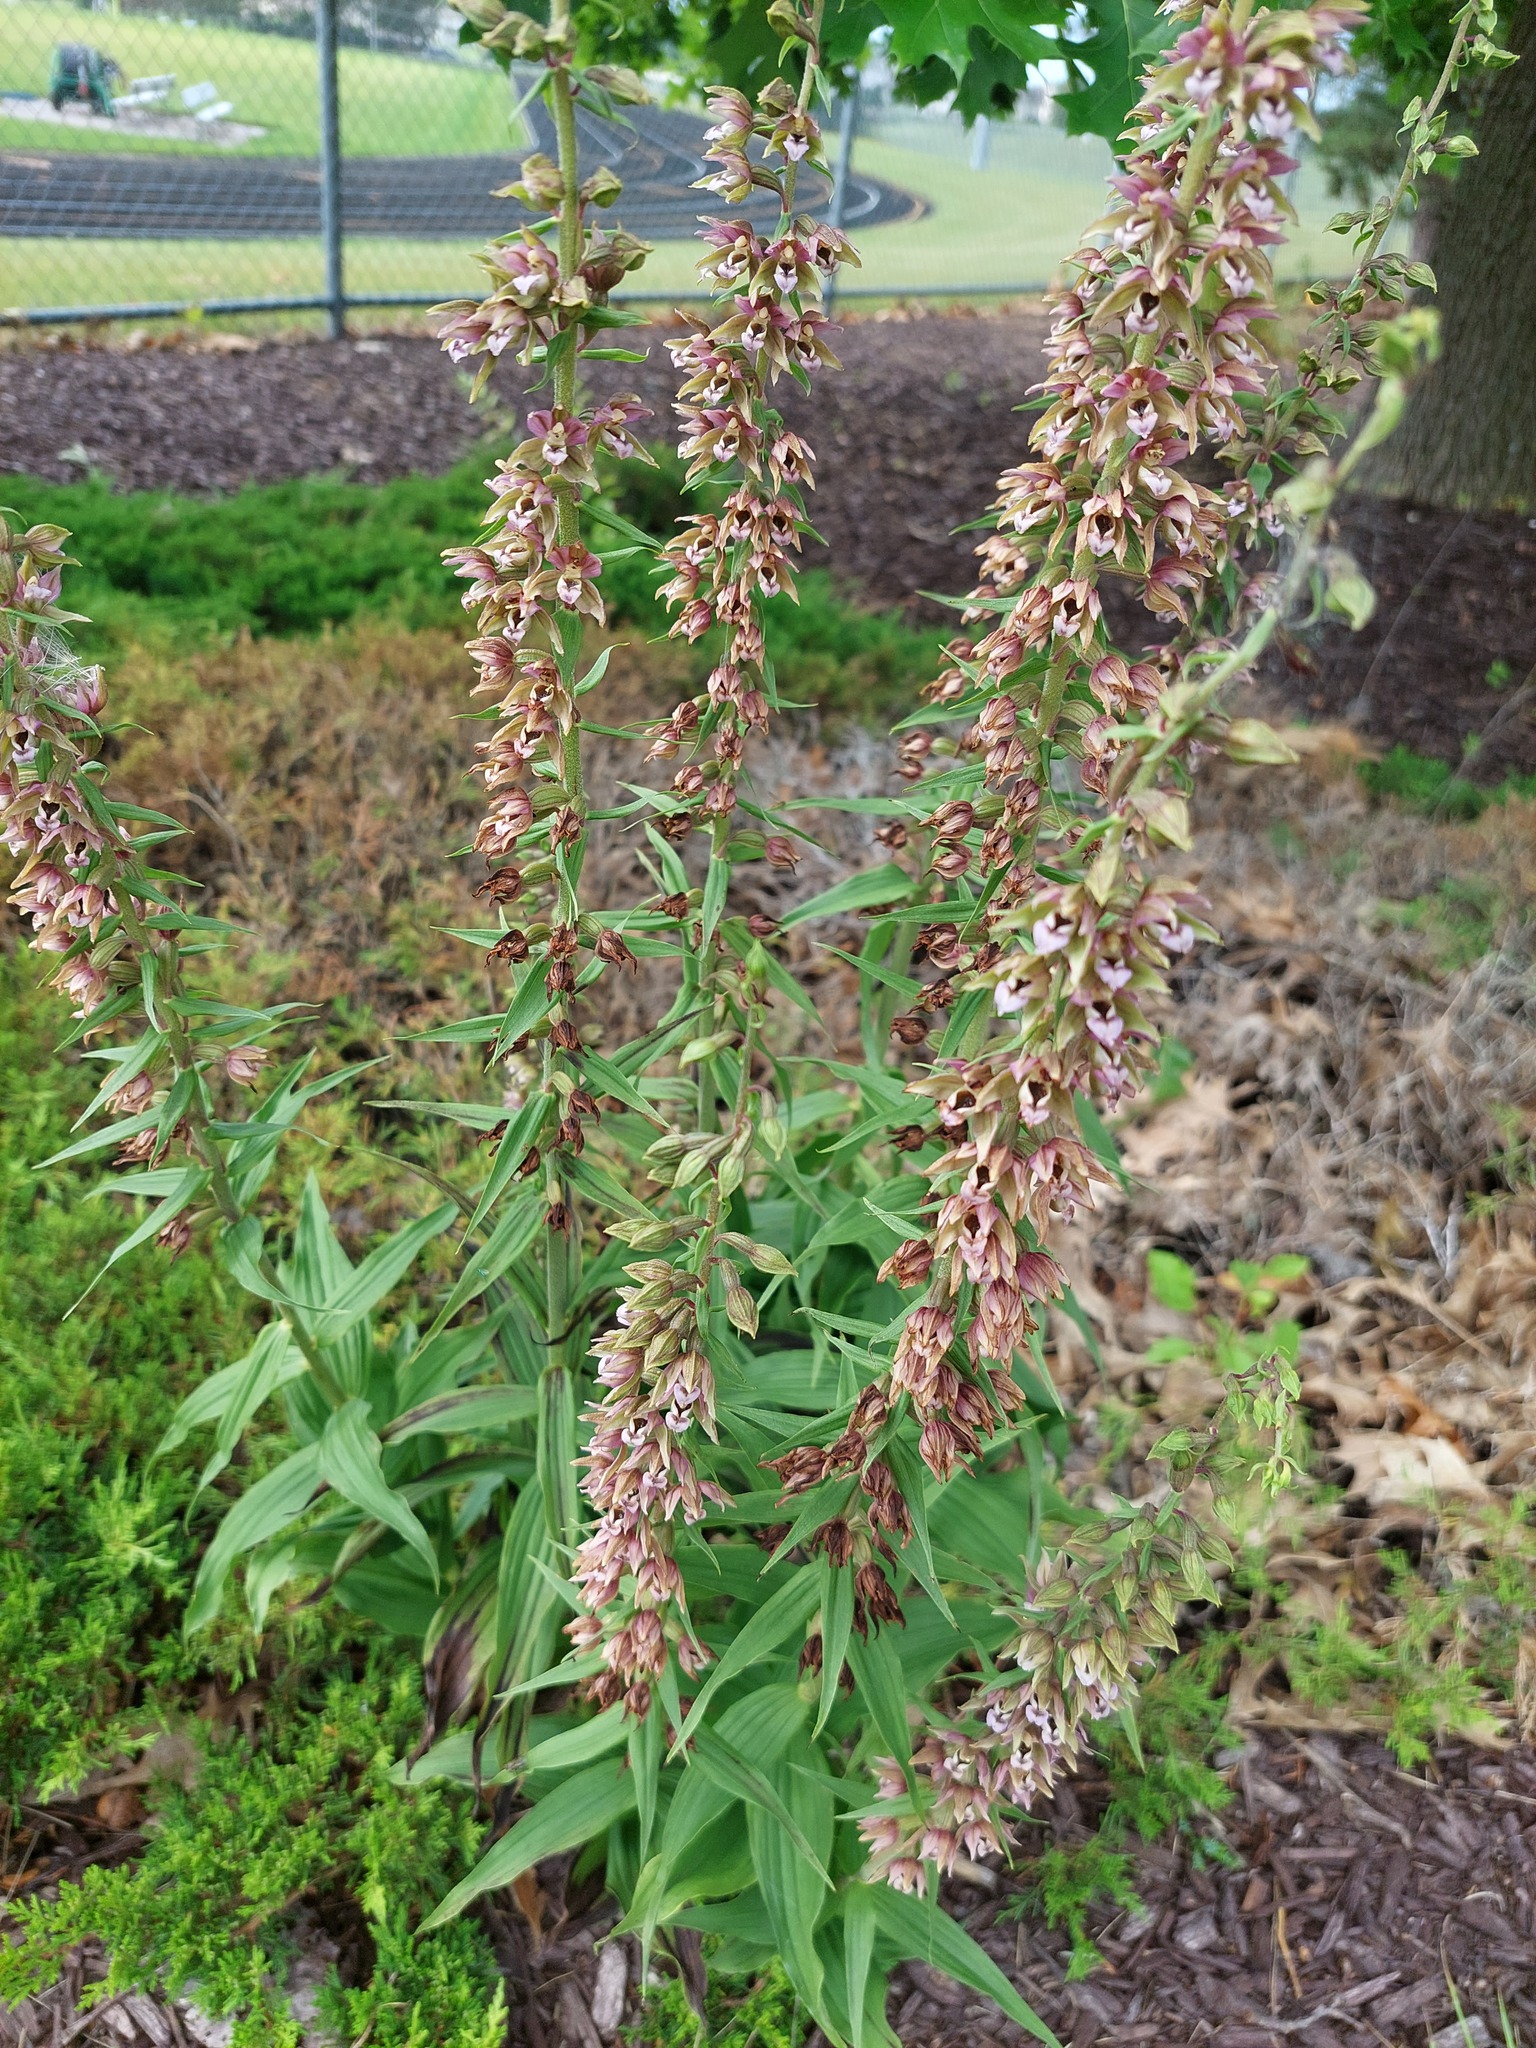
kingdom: Plantae
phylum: Tracheophyta
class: Liliopsida
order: Asparagales
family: Orchidaceae
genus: Epipactis
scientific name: Epipactis helleborine
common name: Broad-leaved helleborine
